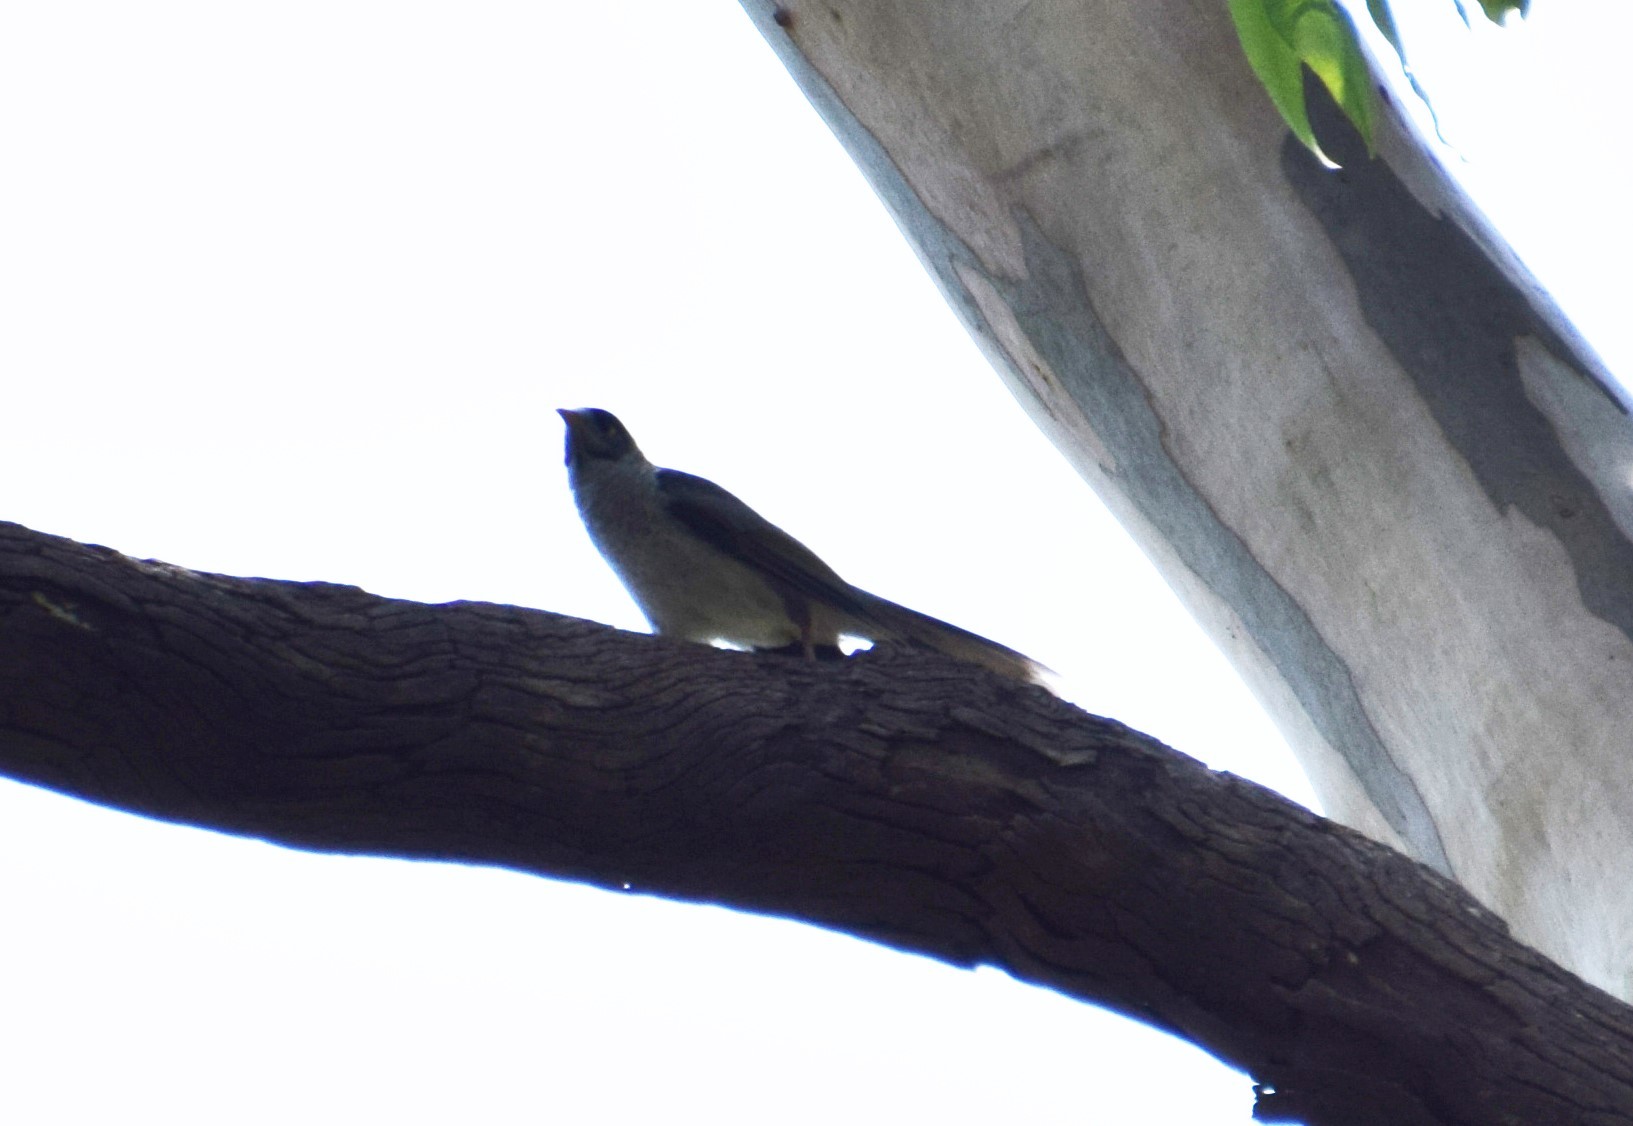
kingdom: Animalia
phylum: Chordata
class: Aves
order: Passeriformes
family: Meliphagidae
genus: Manorina
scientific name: Manorina melanocephala
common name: Noisy miner
